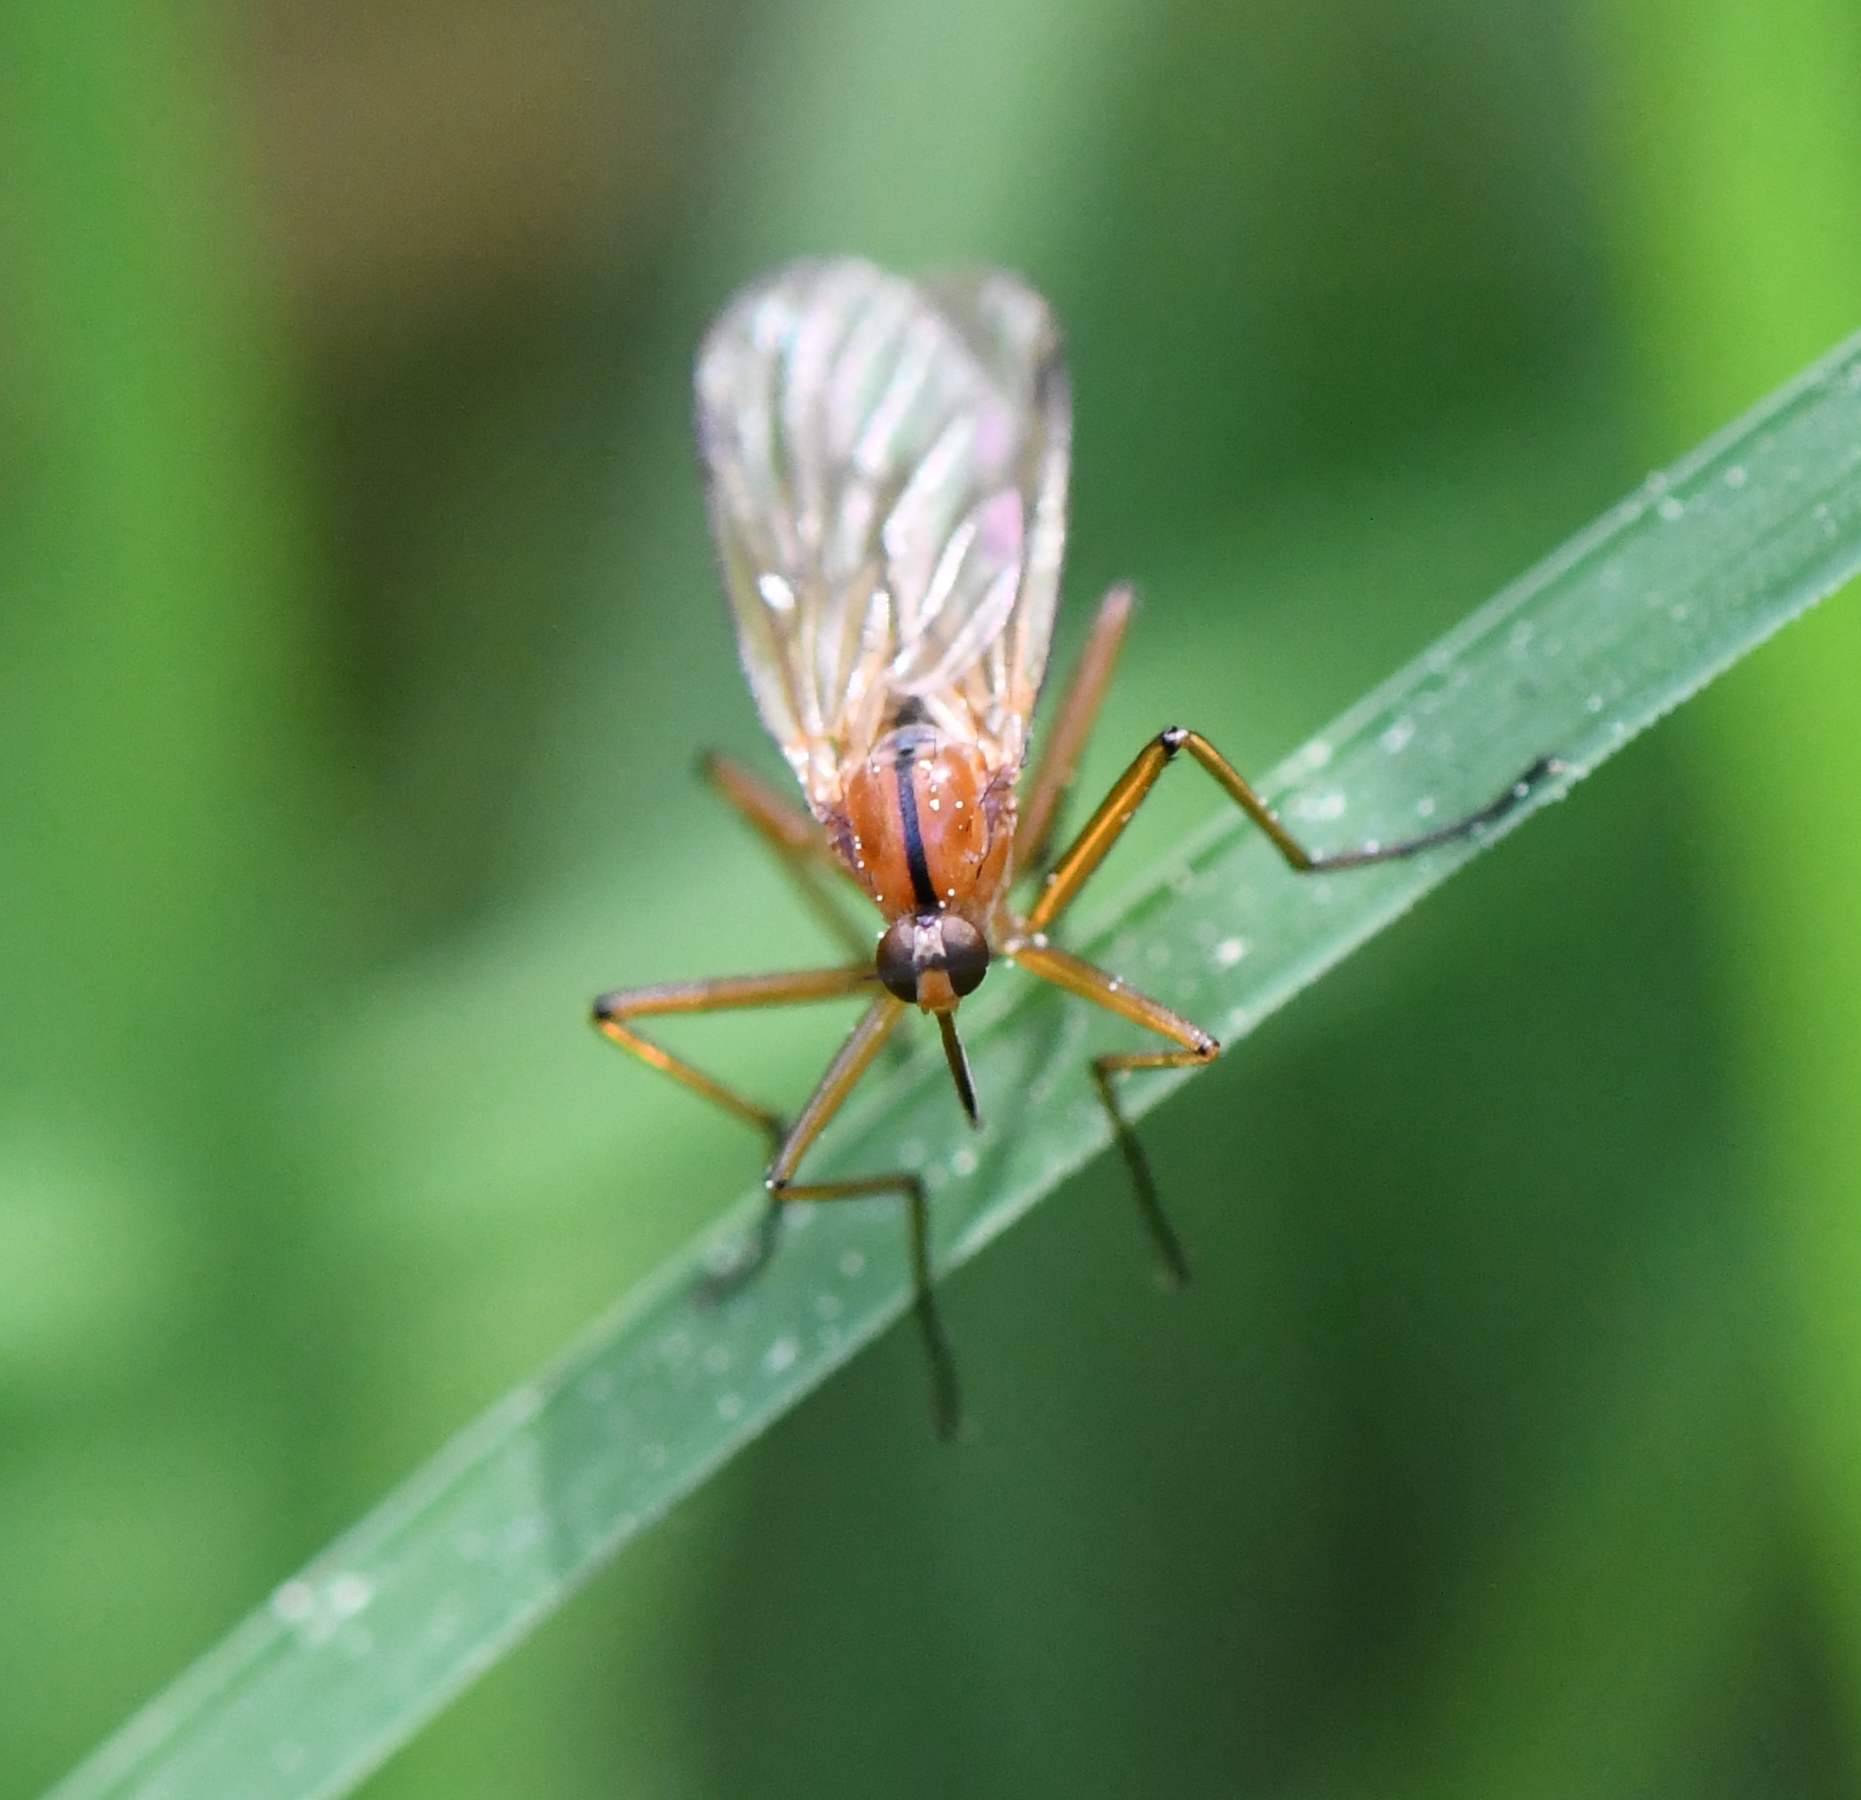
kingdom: Animalia
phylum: Arthropoda
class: Insecta
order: Diptera
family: Empididae
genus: Empis
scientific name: Empis stercorea
